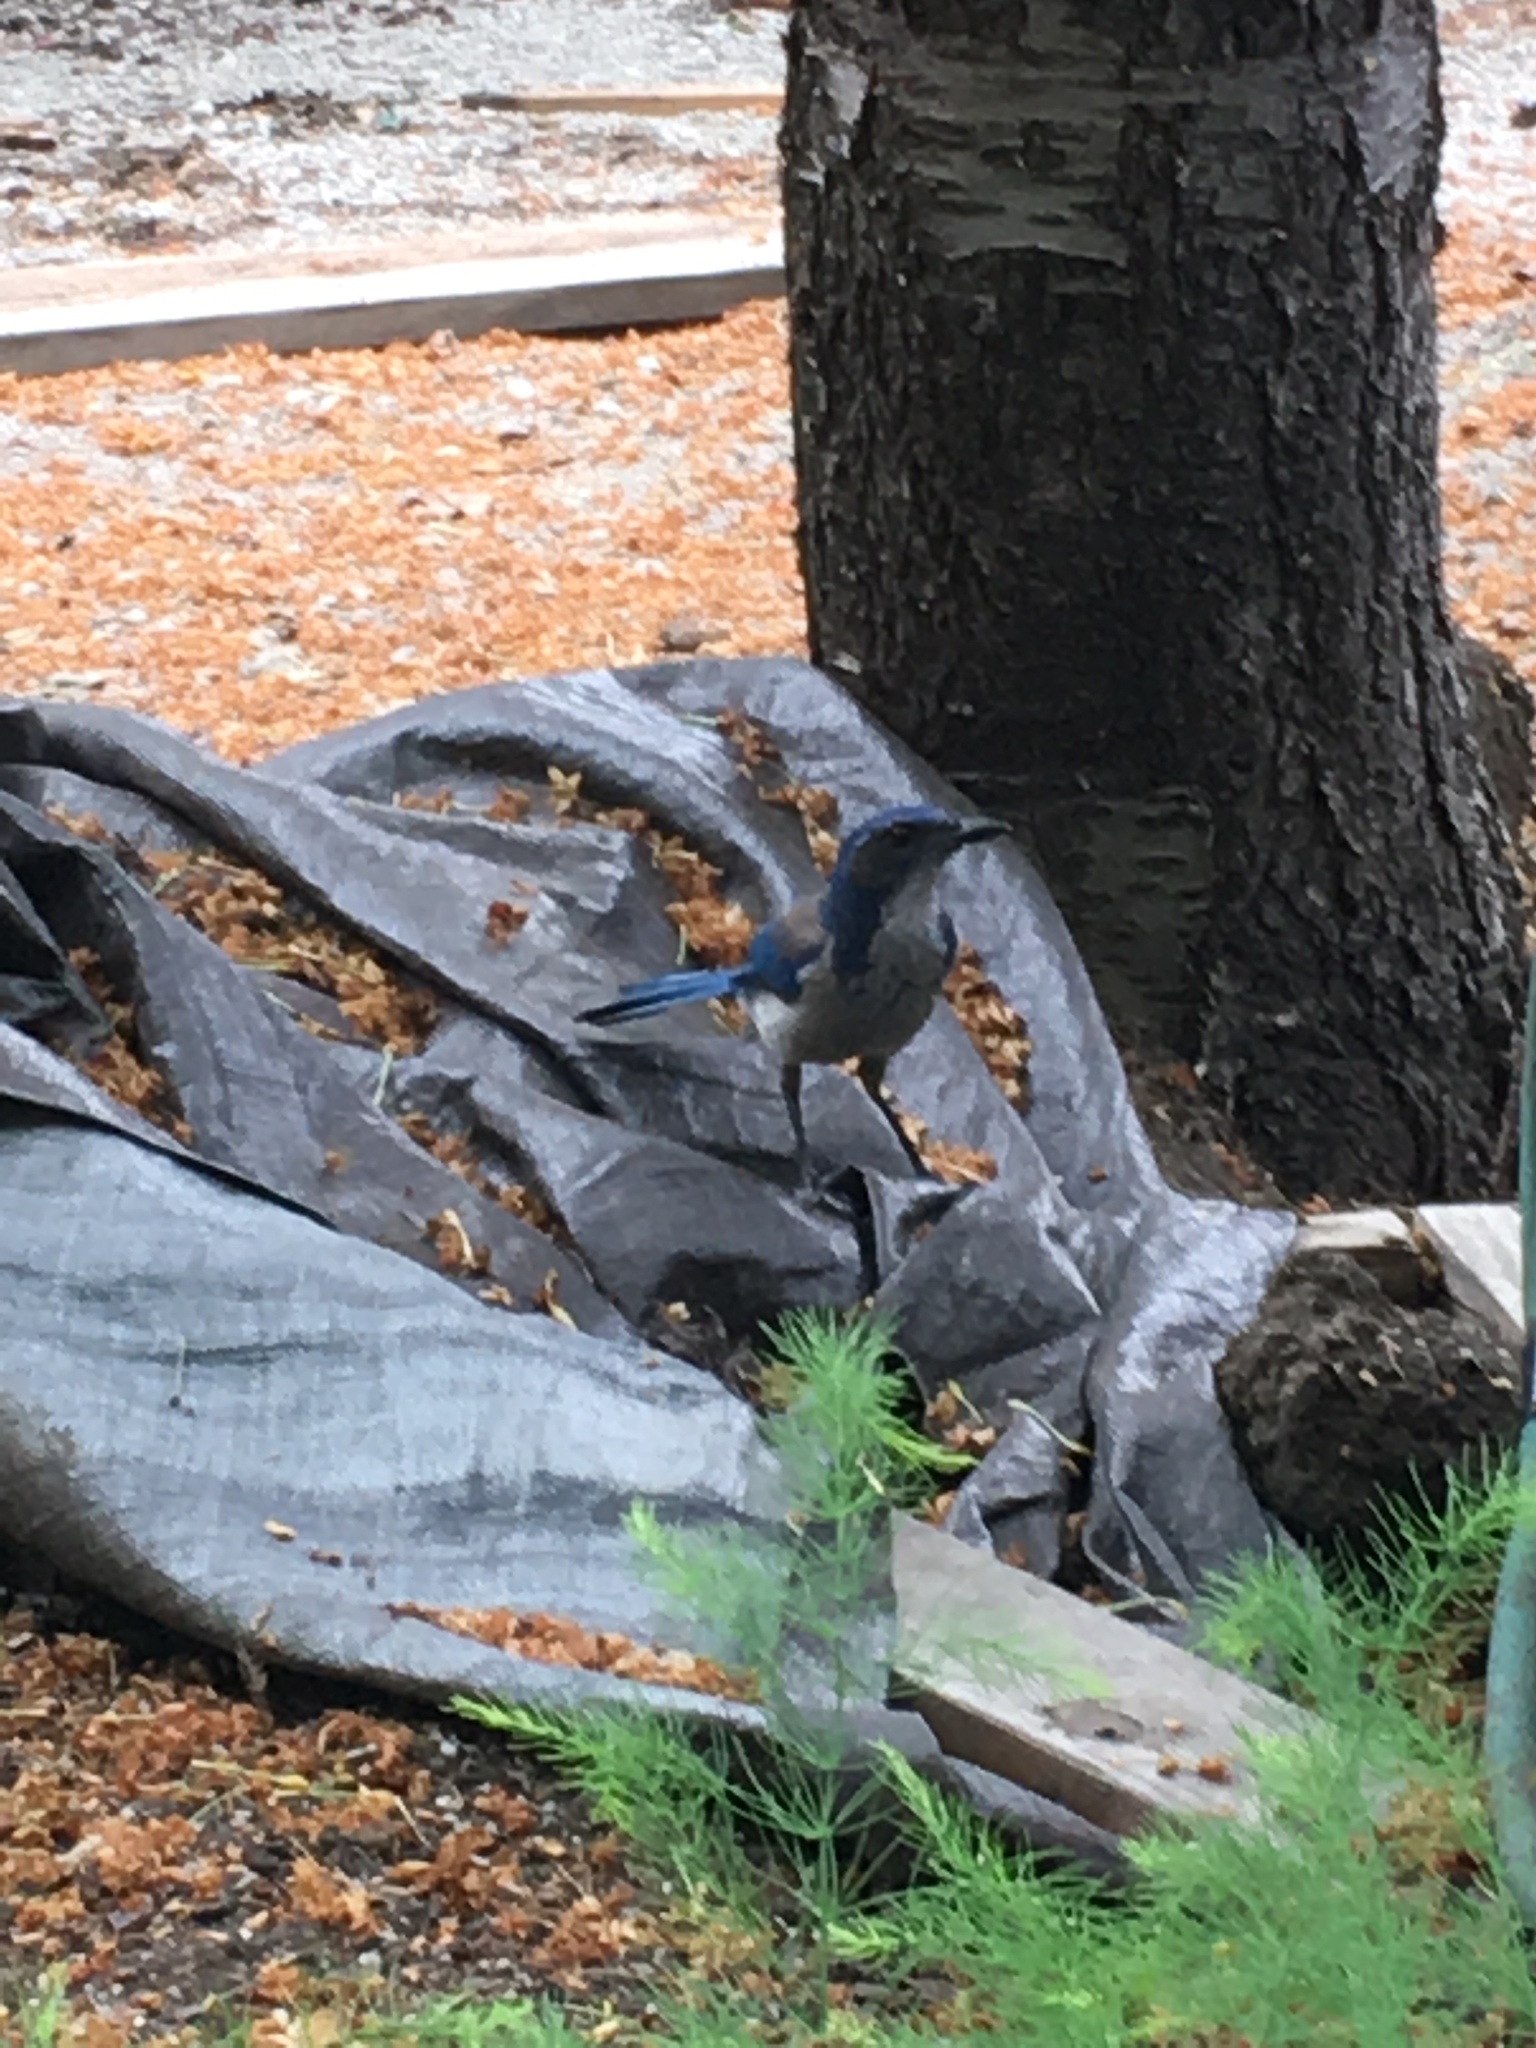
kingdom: Animalia
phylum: Chordata
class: Aves
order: Passeriformes
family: Corvidae
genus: Aphelocoma
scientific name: Aphelocoma californica
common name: California scrub-jay
